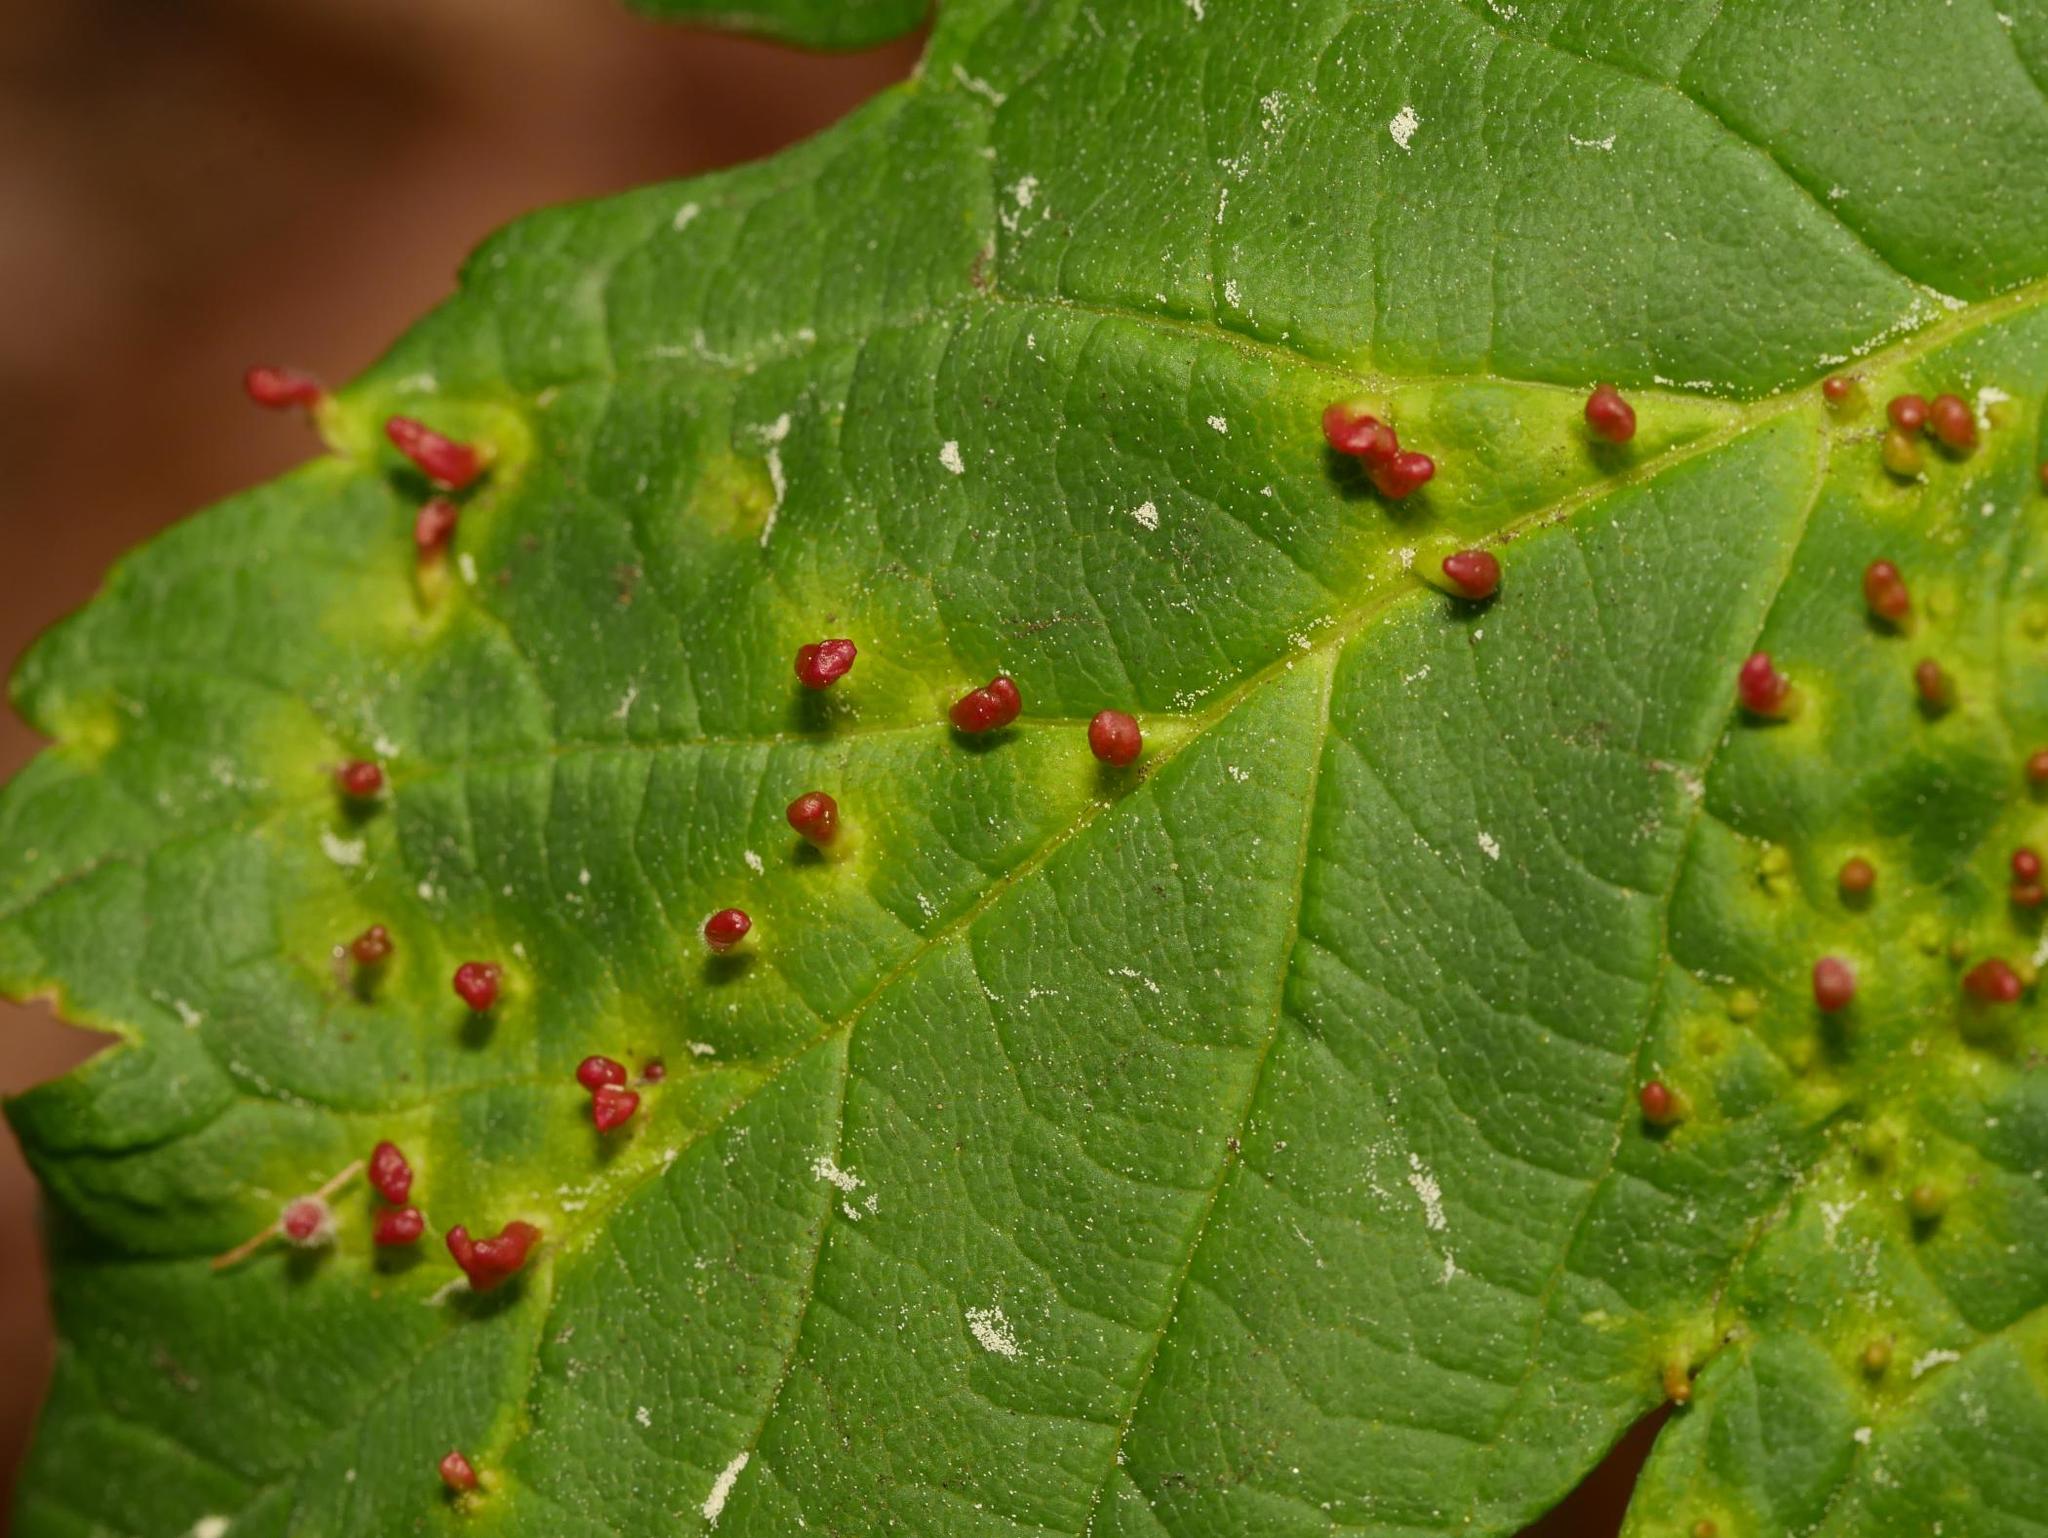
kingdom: Animalia
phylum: Arthropoda
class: Arachnida
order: Trombidiformes
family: Eriophyidae
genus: Aceria
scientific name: Aceria cephaloneus
